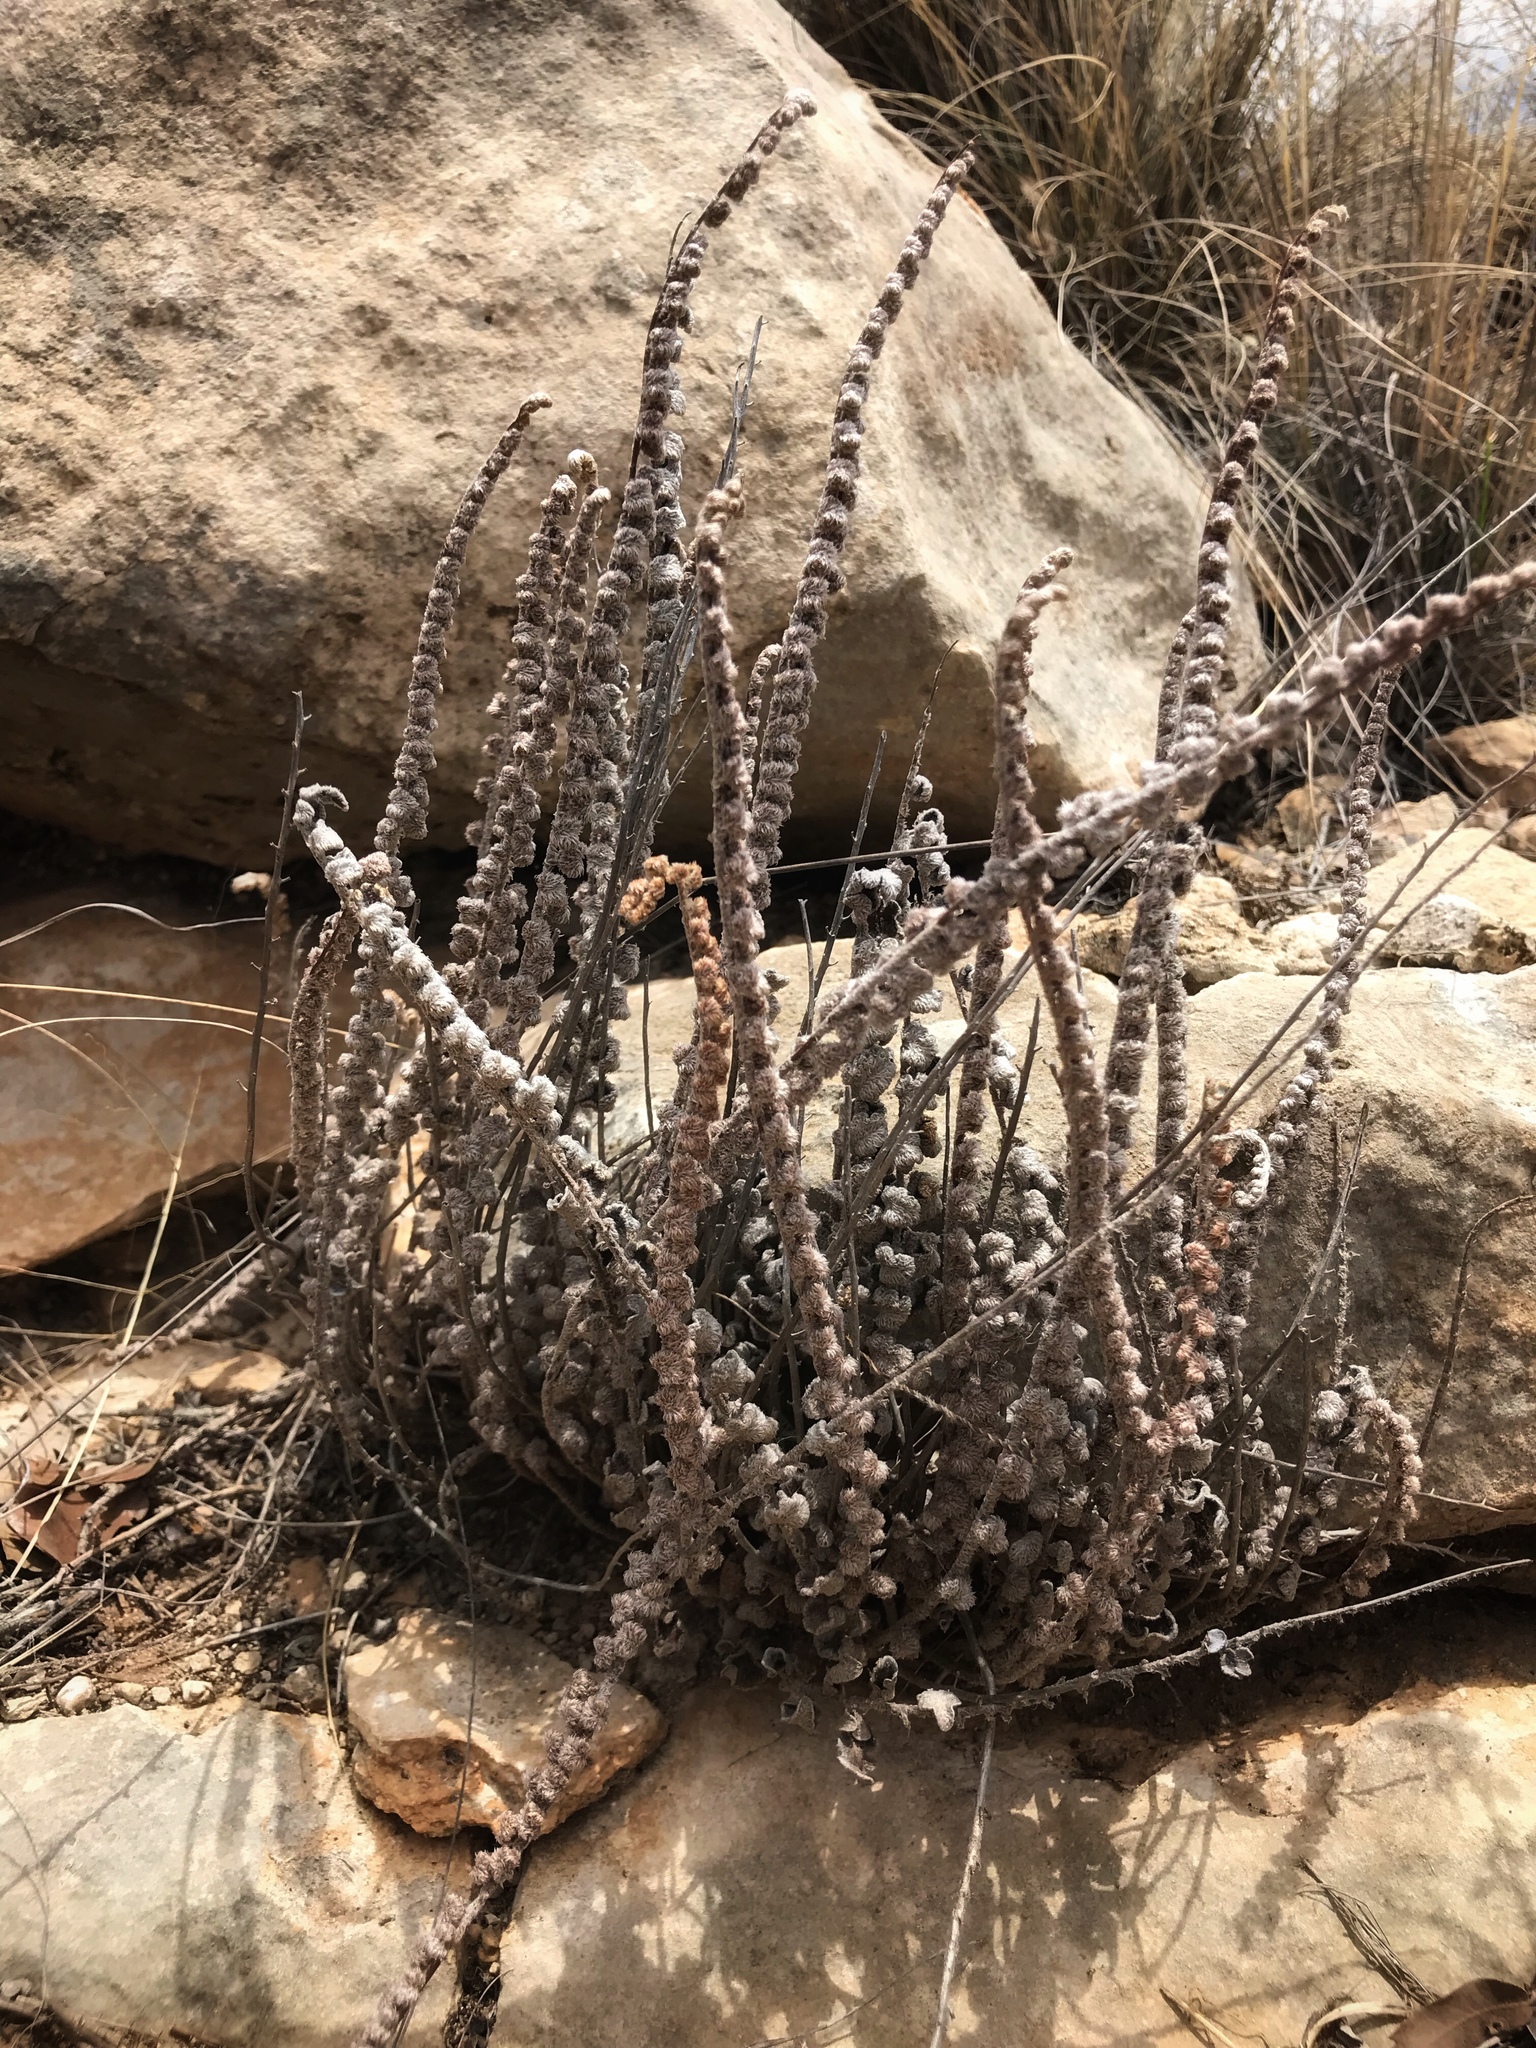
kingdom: Plantae
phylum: Tracheophyta
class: Polypodiopsida
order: Polypodiales
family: Pteridaceae
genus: Astrolepis
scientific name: Astrolepis cochisensis
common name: Scaly cloak fern
